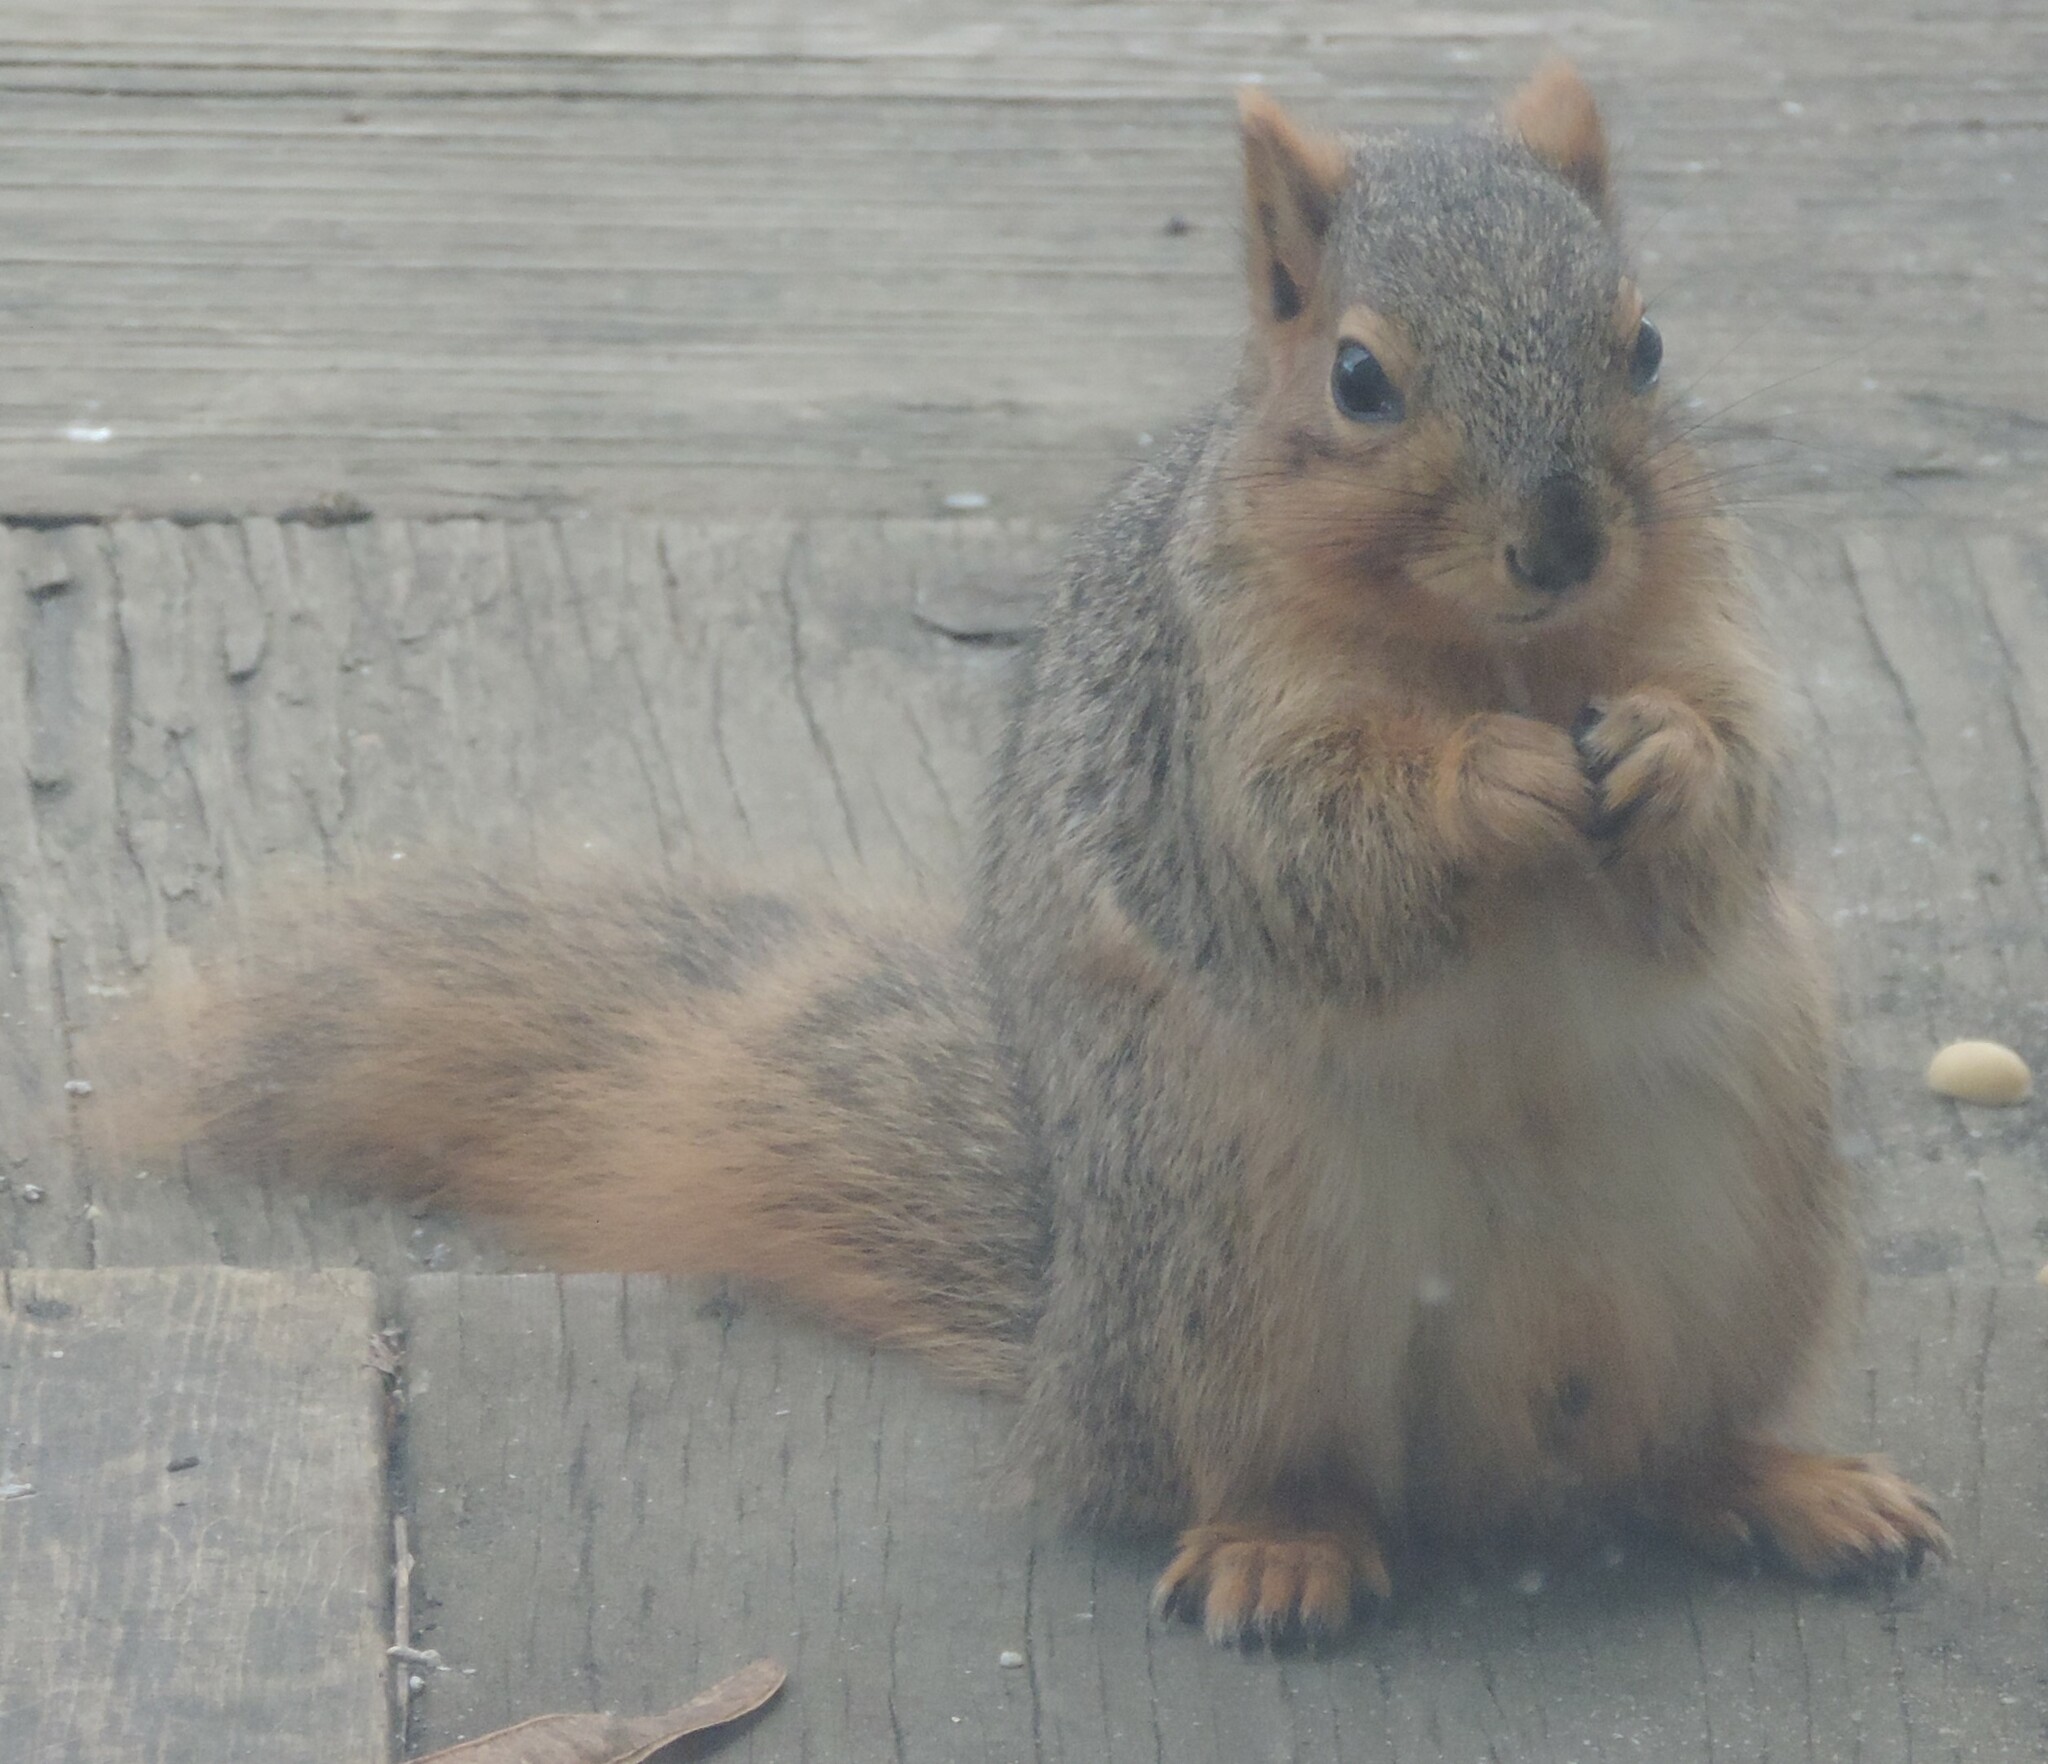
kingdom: Animalia
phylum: Chordata
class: Mammalia
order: Rodentia
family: Sciuridae
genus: Sciurus
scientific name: Sciurus niger
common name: Fox squirrel
